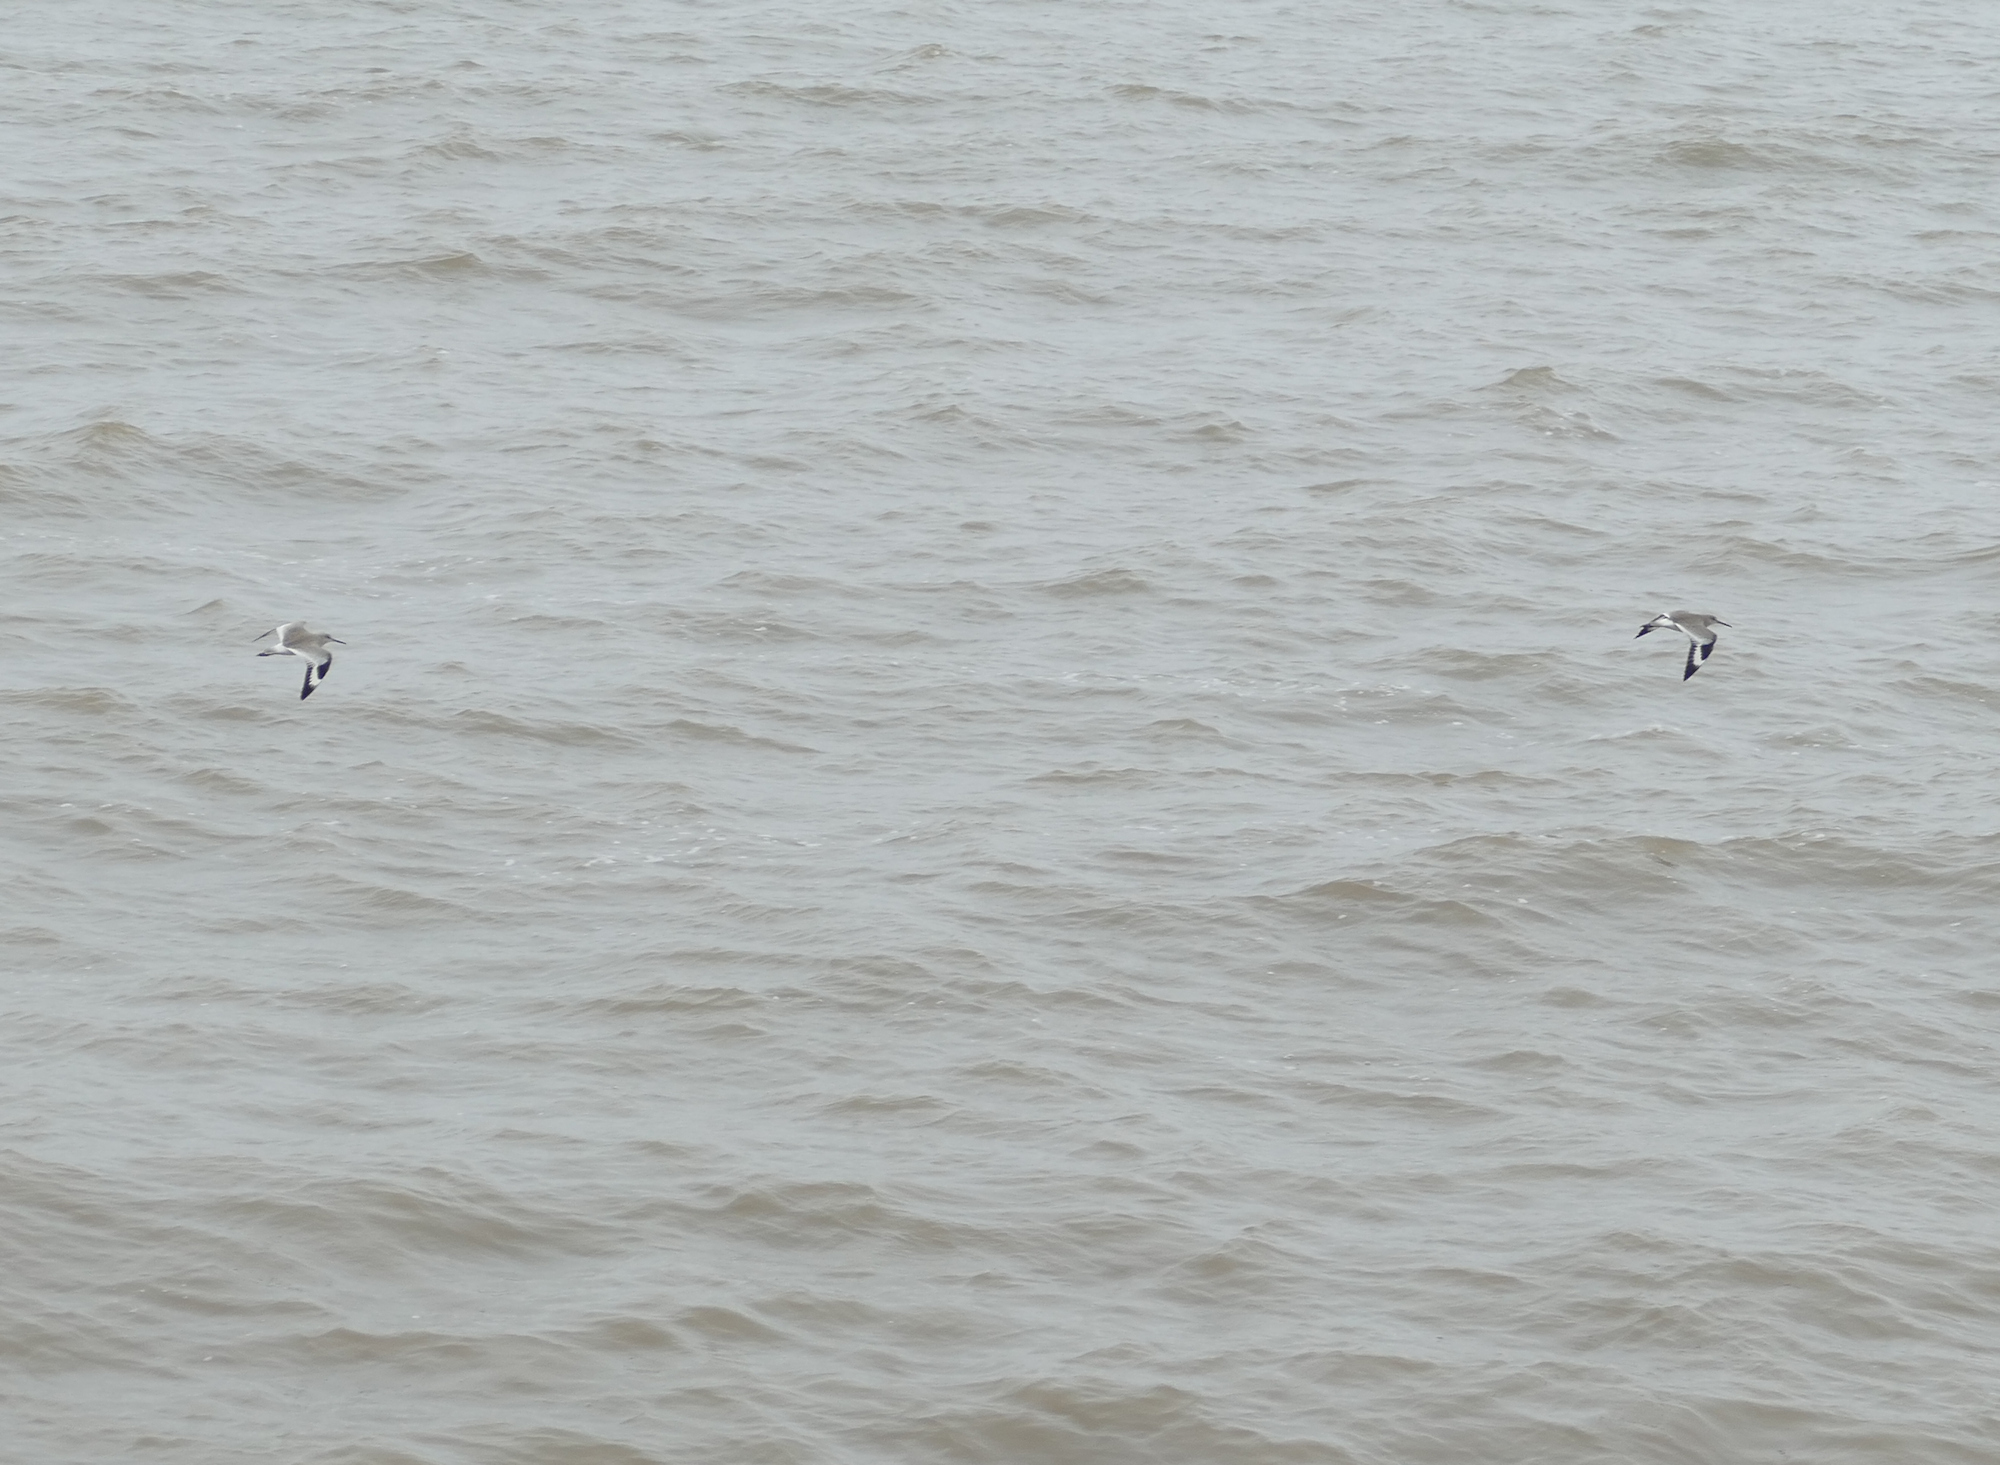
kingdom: Animalia
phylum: Chordata
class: Aves
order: Charadriiformes
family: Scolopacidae
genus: Tringa
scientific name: Tringa semipalmata
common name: Willet
